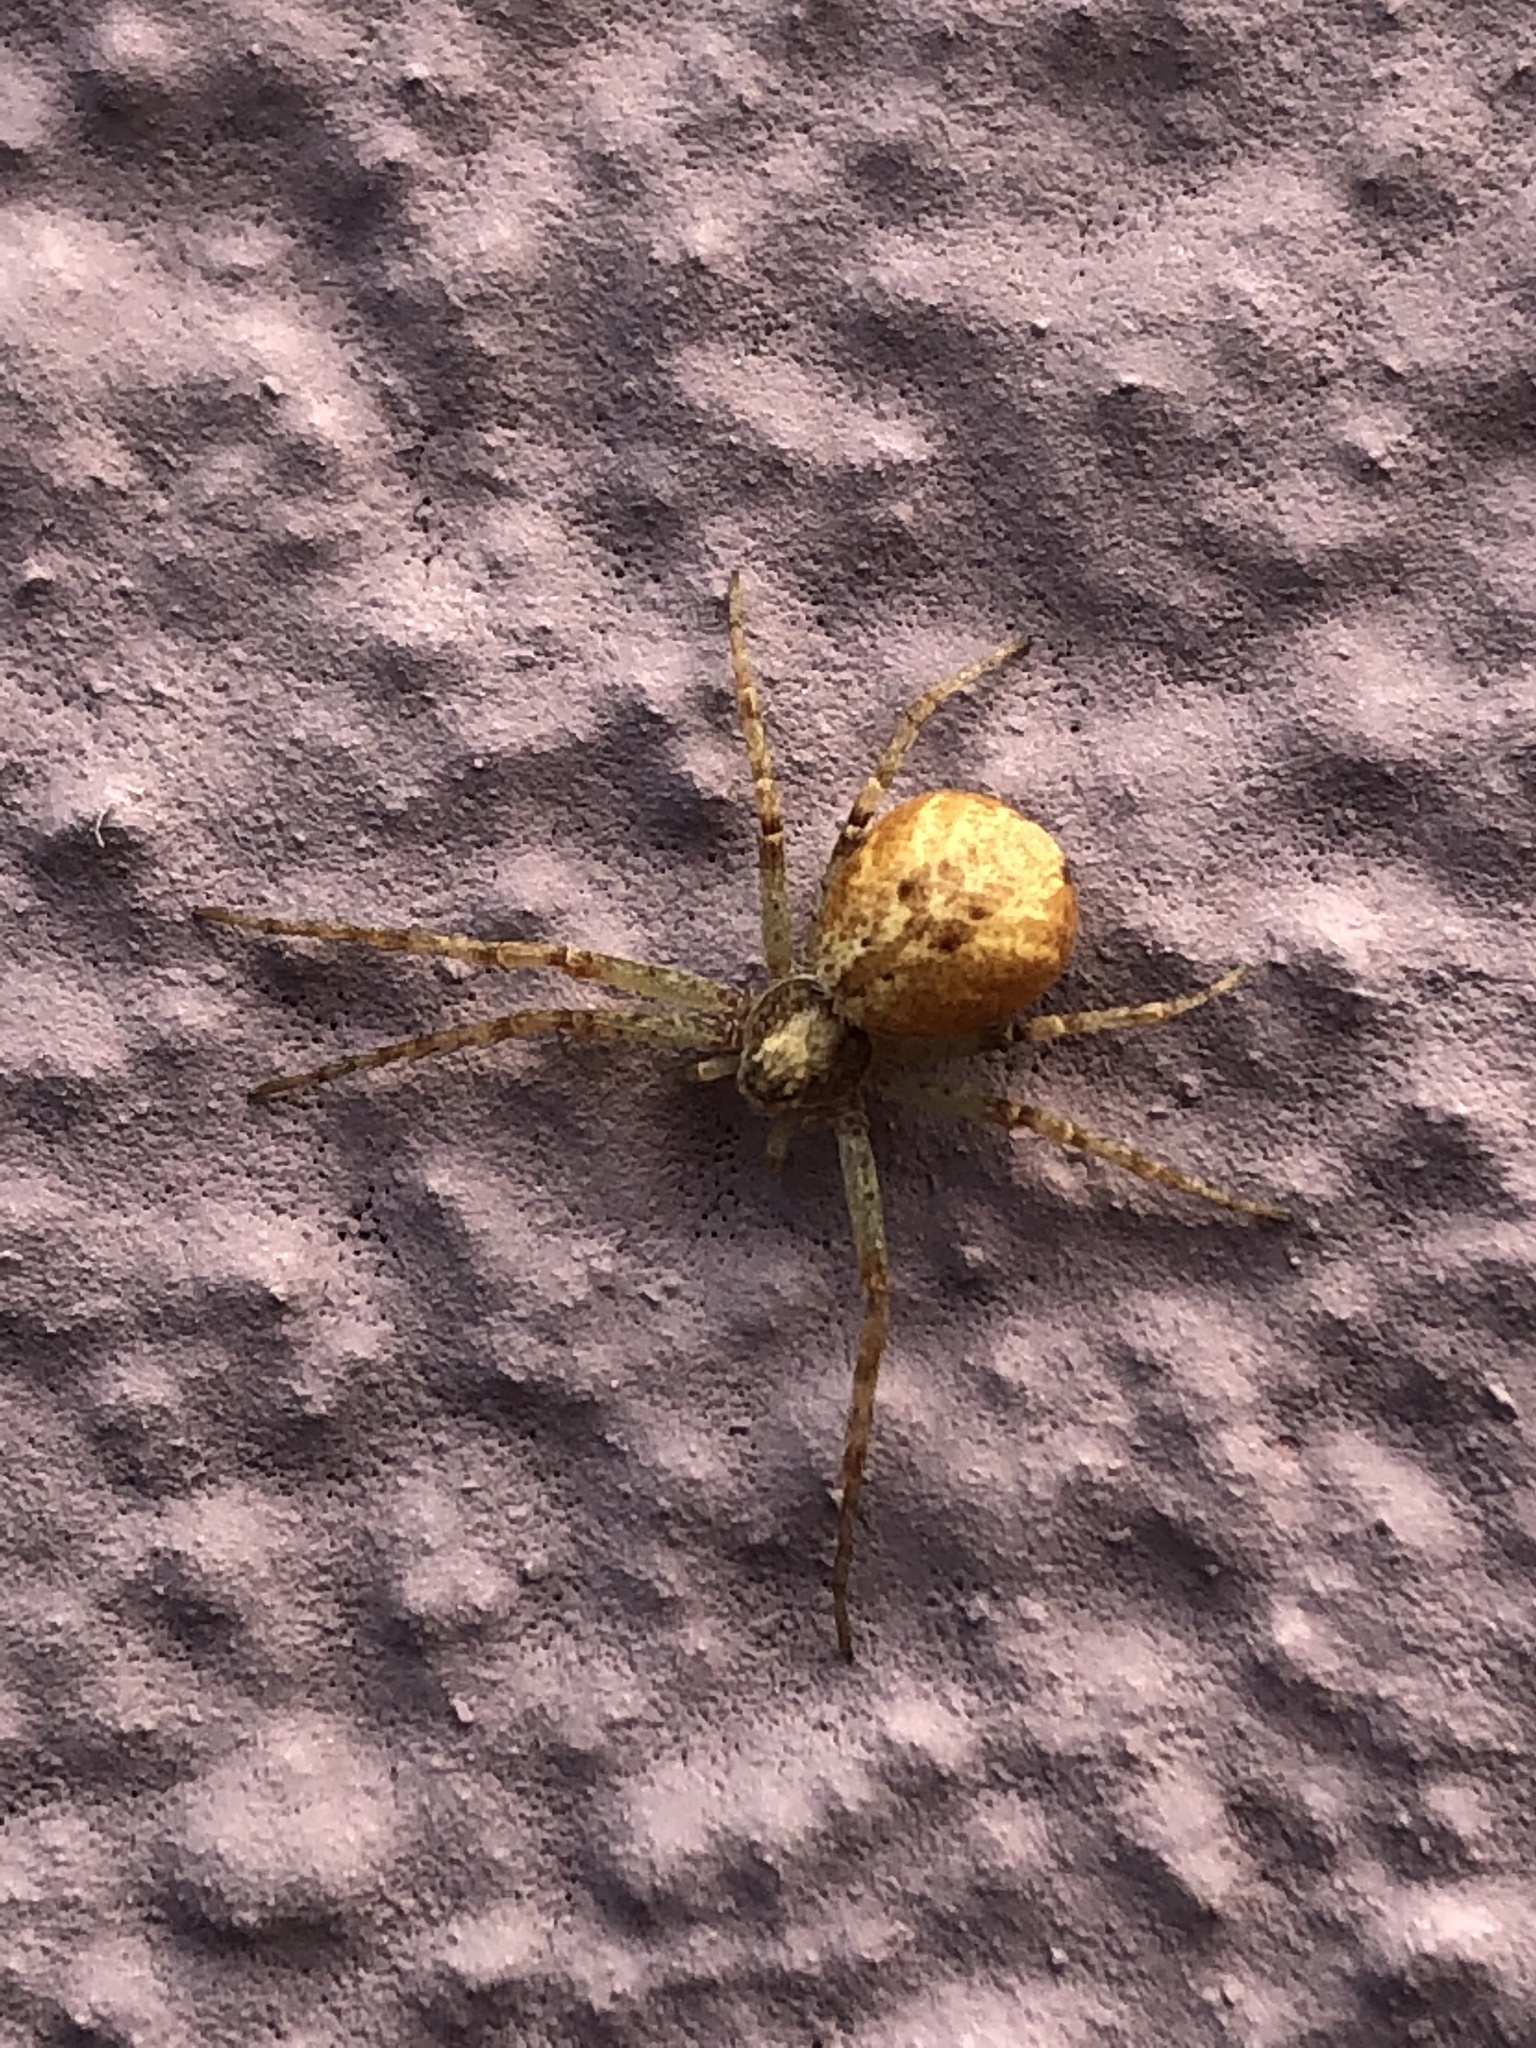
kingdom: Animalia
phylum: Arthropoda
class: Arachnida
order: Araneae
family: Philodromidae
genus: Philodromus
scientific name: Philodromus
